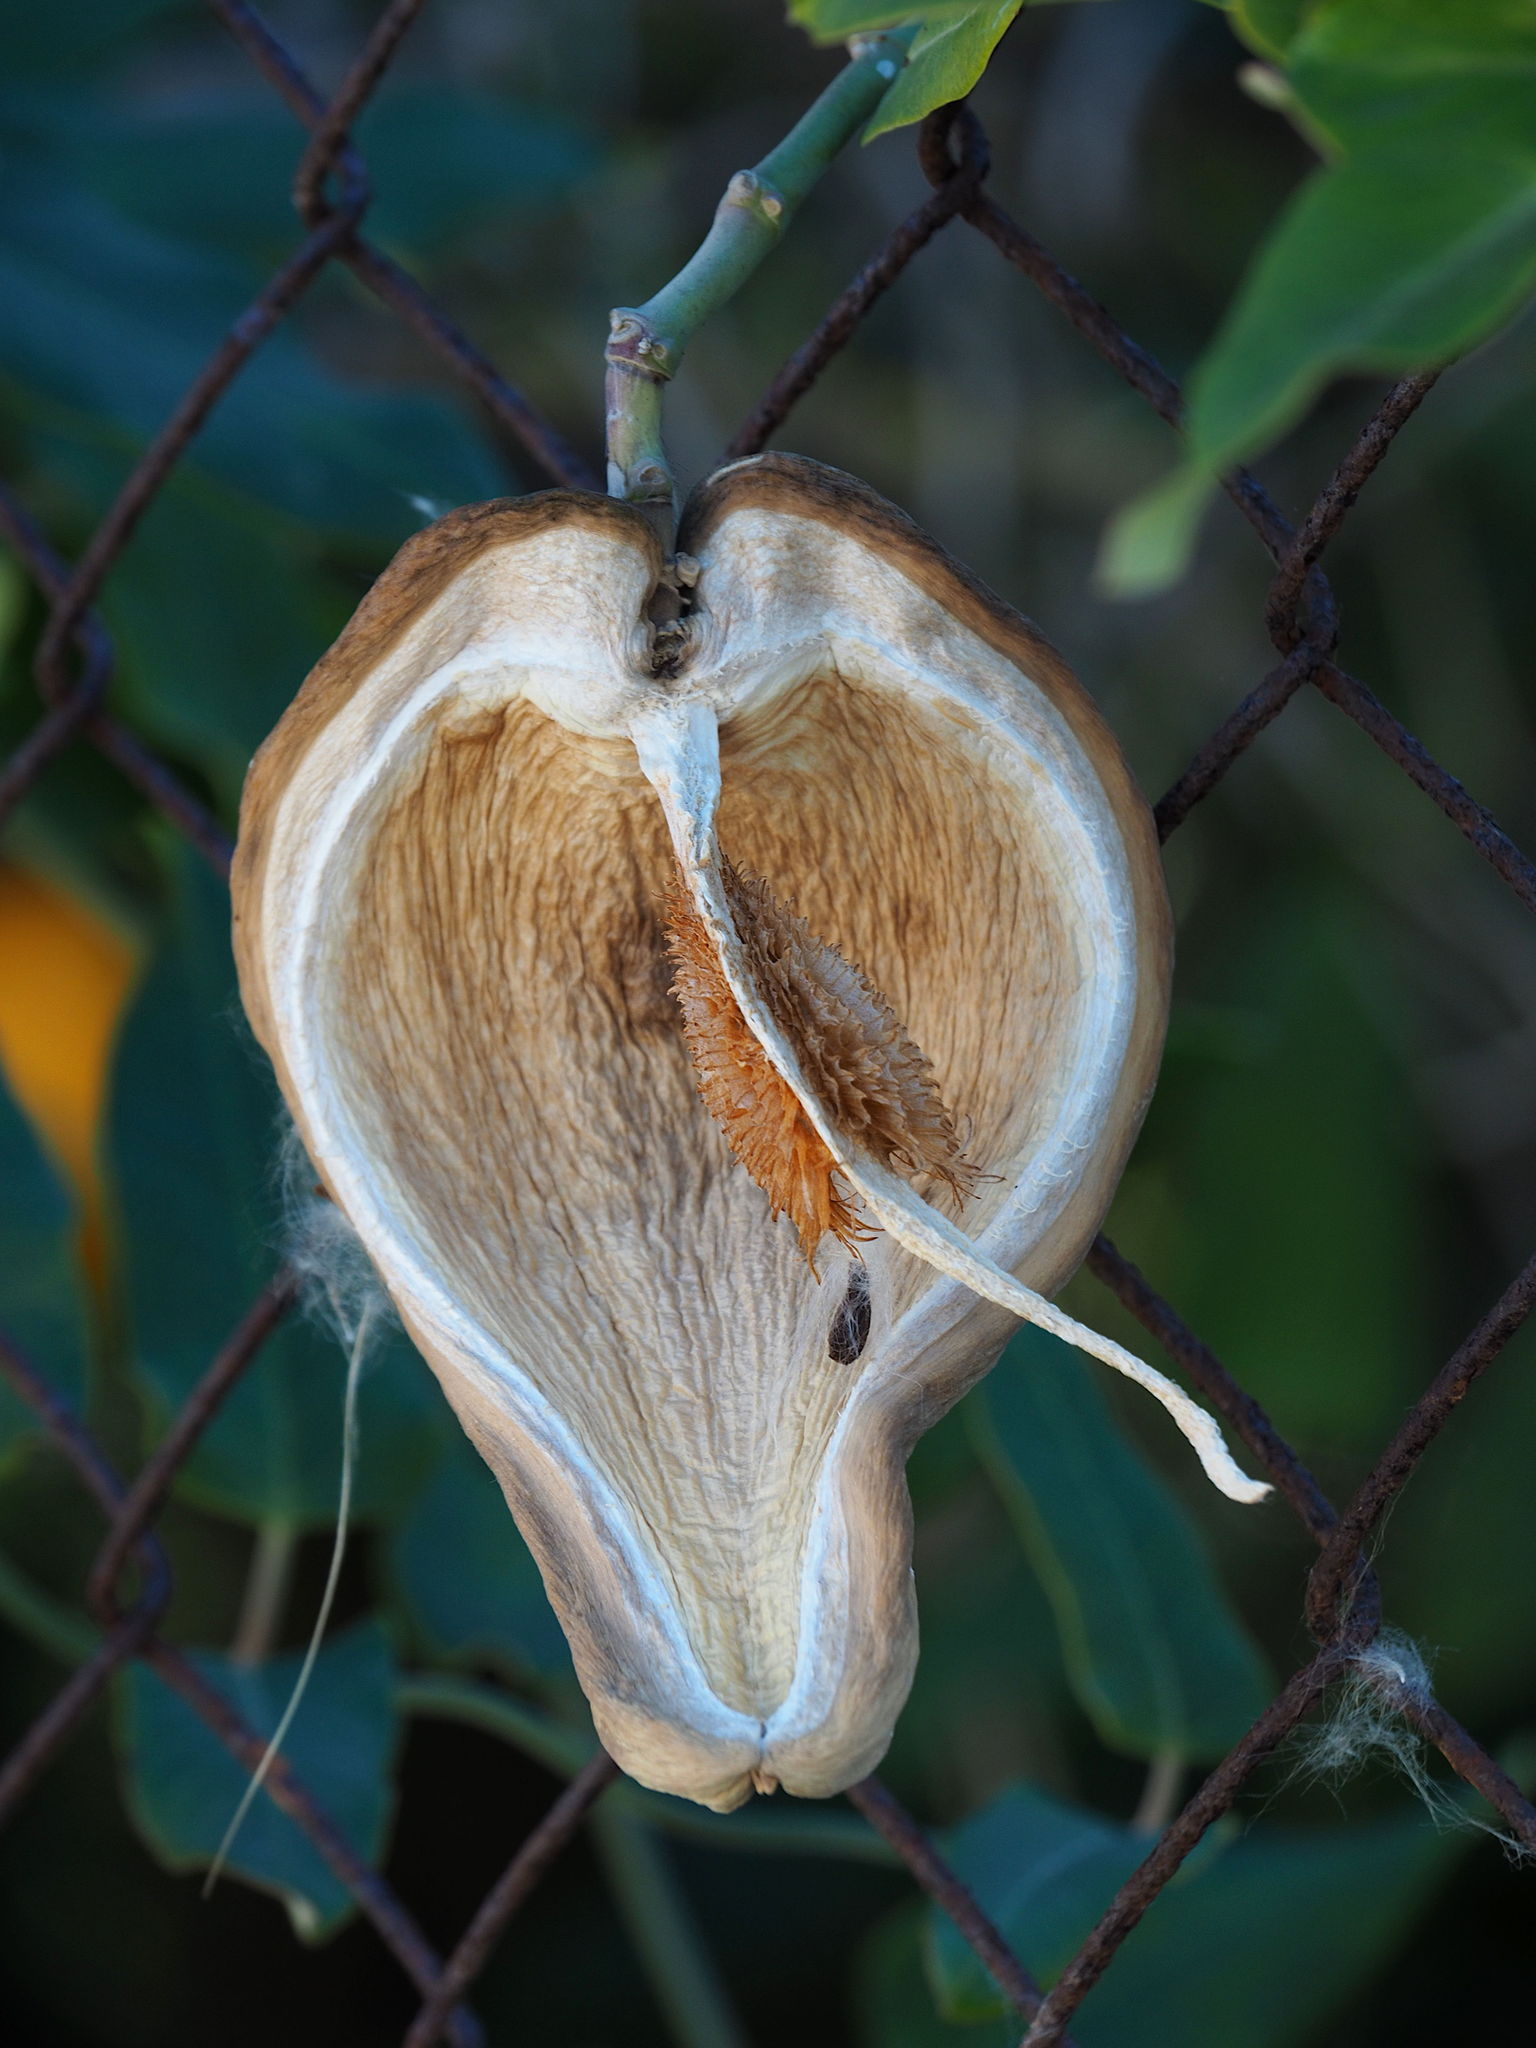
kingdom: Plantae
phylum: Tracheophyta
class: Magnoliopsida
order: Gentianales
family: Apocynaceae
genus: Araujia
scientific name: Araujia sericifera
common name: White bladderflower
